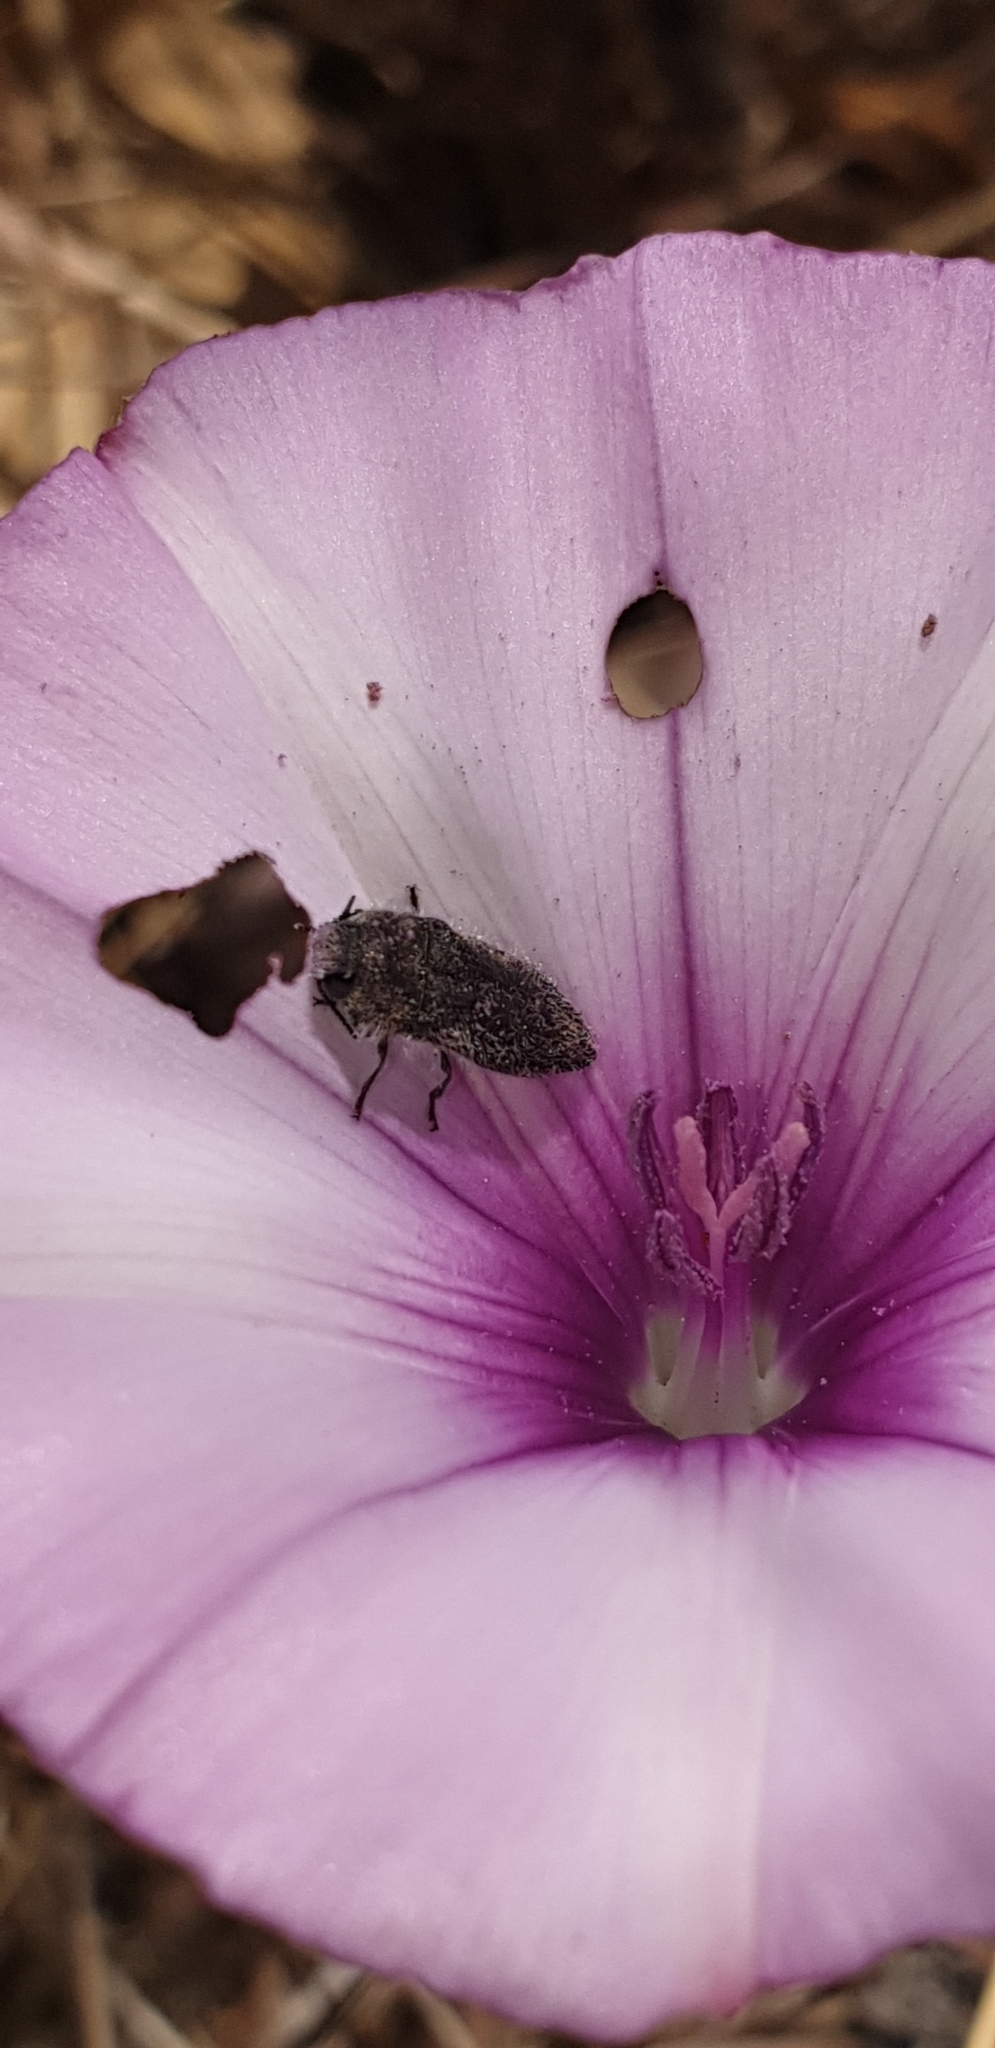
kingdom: Animalia
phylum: Arthropoda
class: Insecta
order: Coleoptera
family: Buprestidae
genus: Acmaeodera
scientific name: Acmaeodera cylindrica
